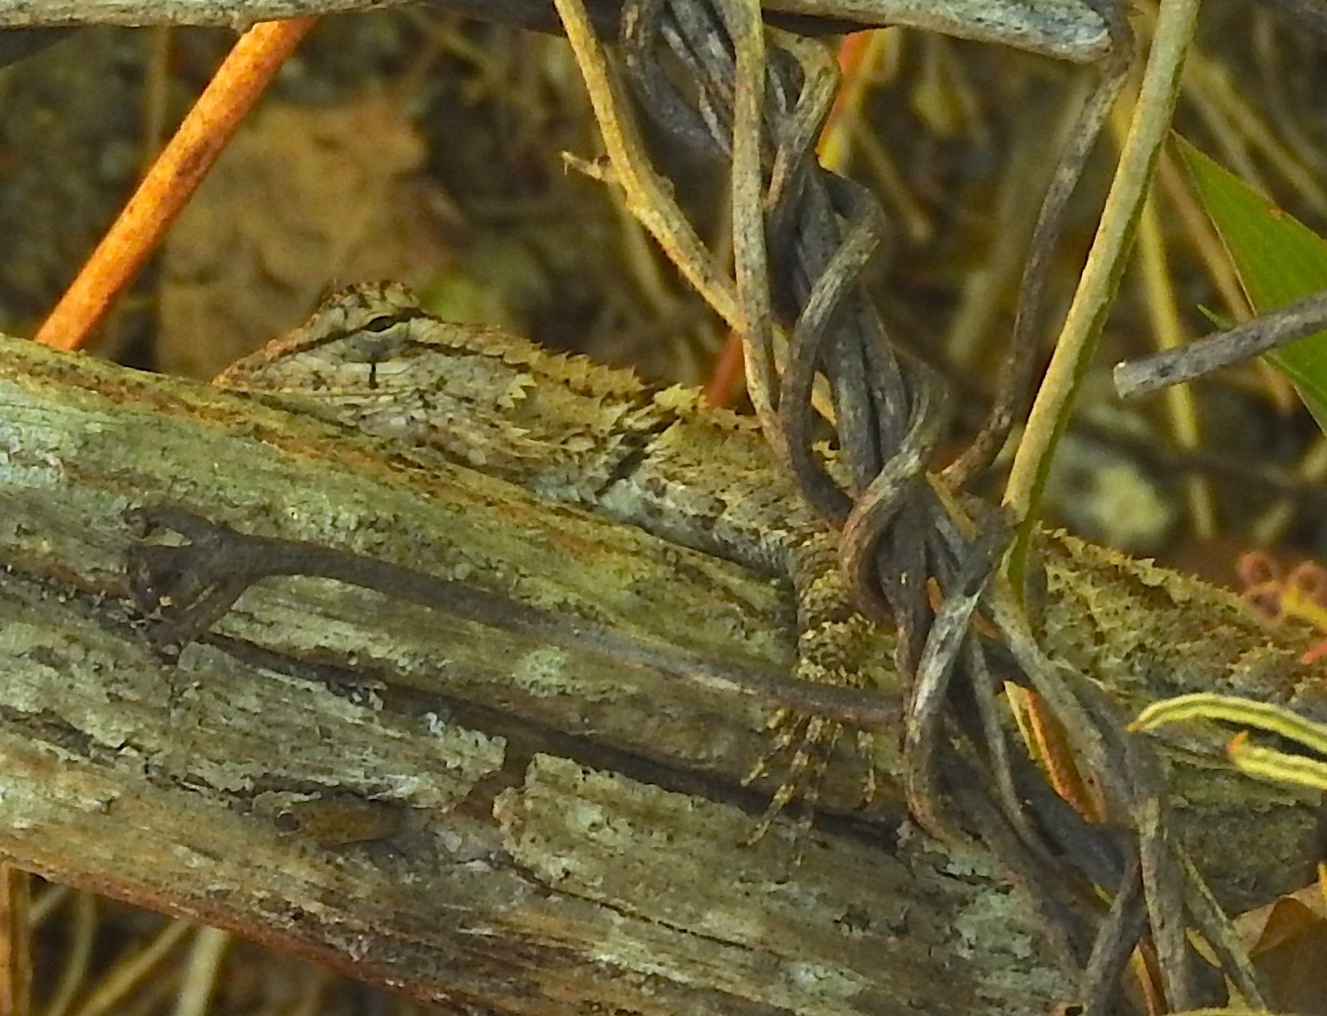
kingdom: Animalia
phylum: Chordata
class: Squamata
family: Phrynosomatidae
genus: Sceloporus
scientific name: Sceloporus clarkii
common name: Clark's spiny lizard
